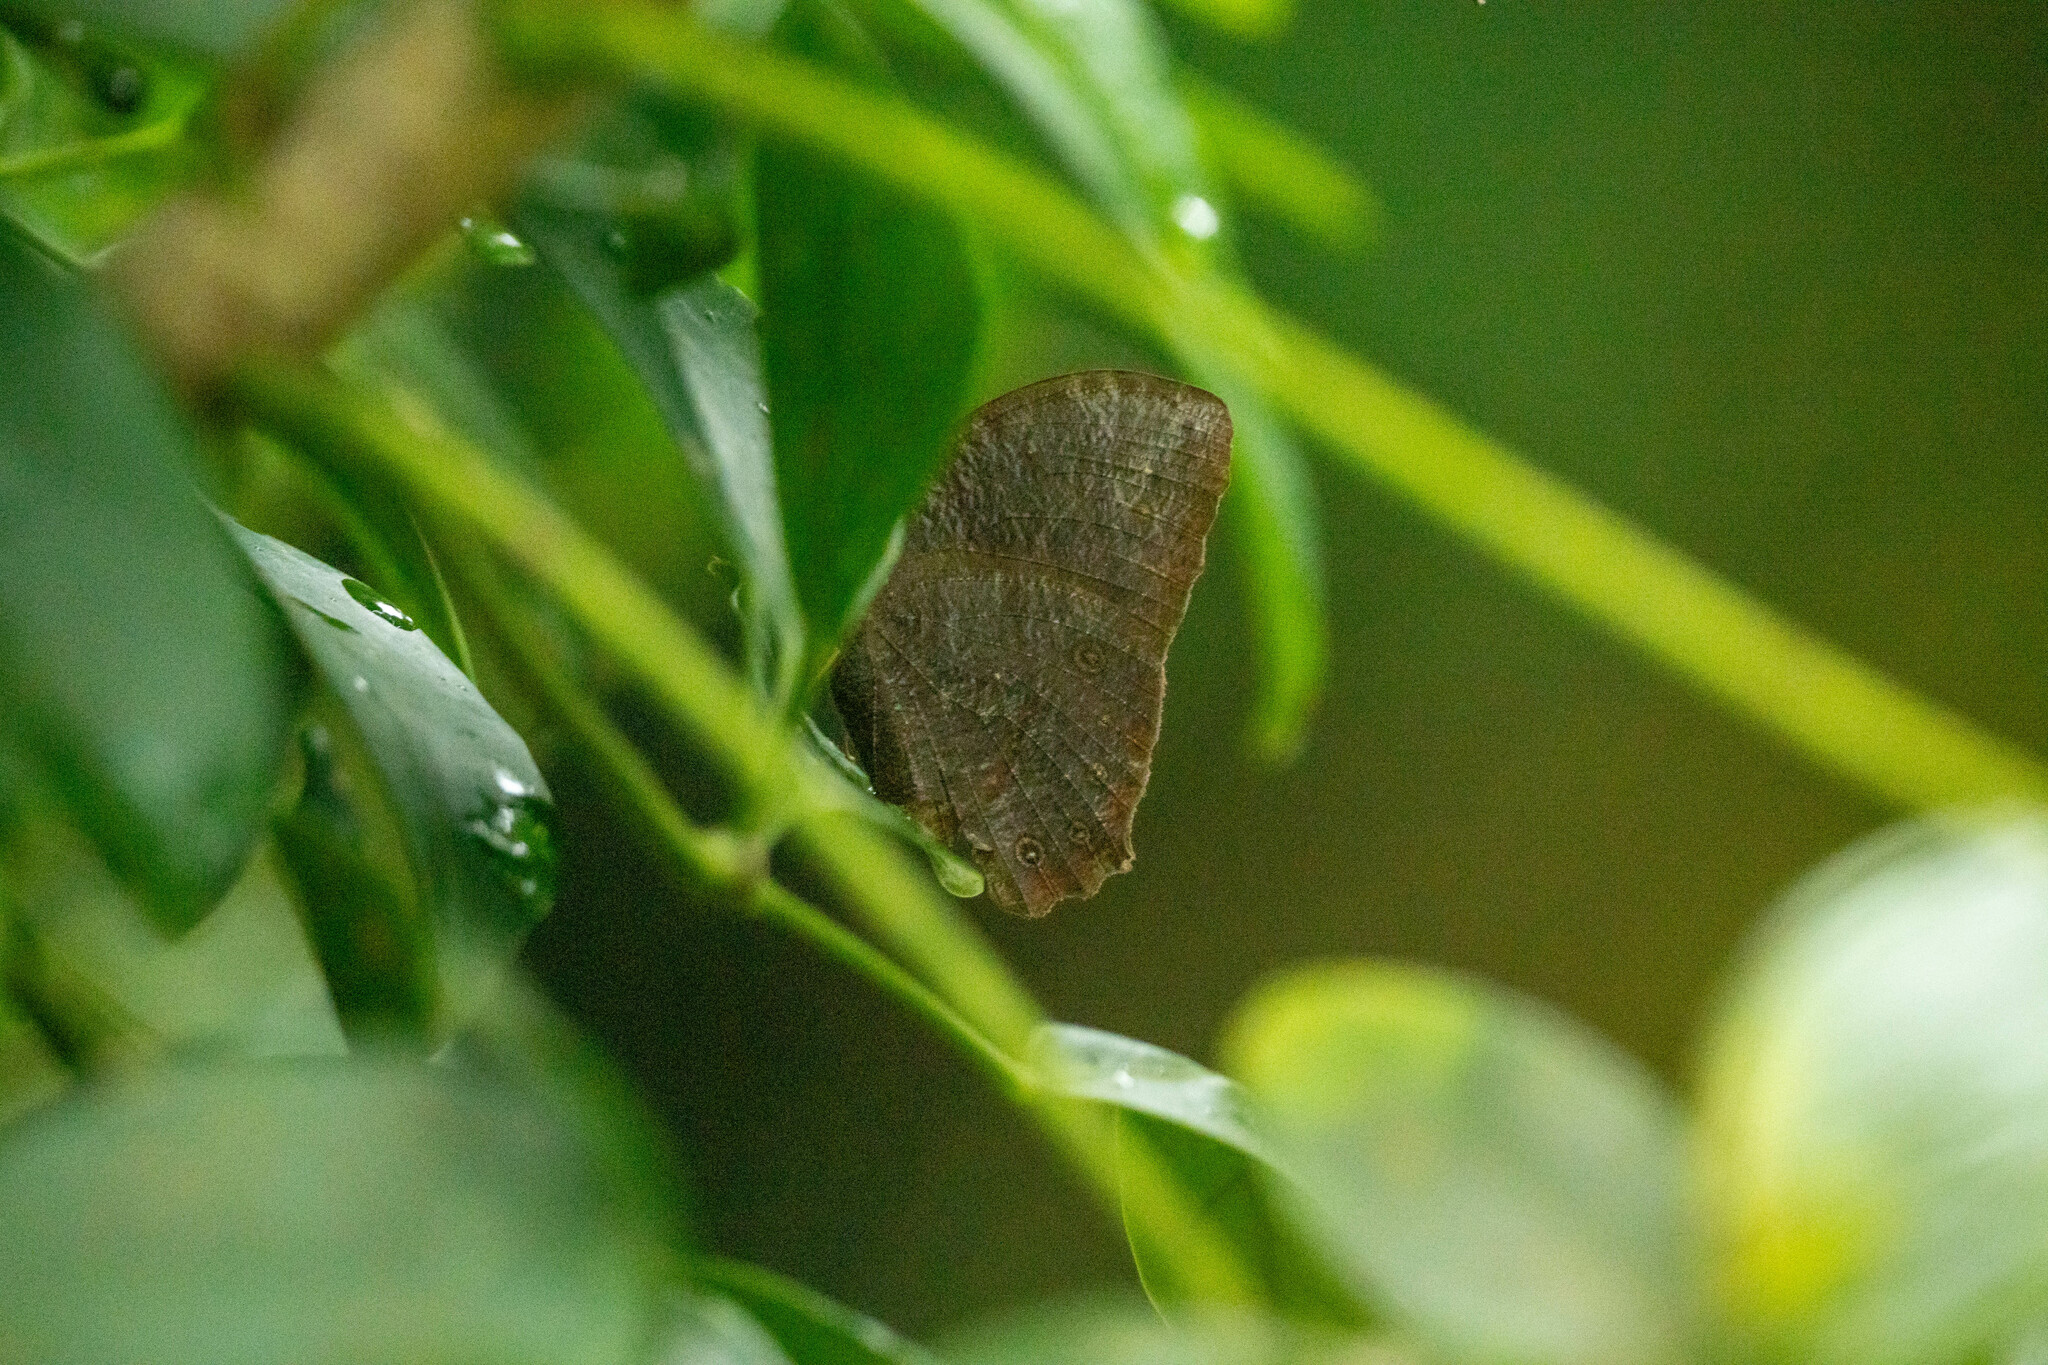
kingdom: Animalia
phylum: Arthropoda
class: Insecta
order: Lepidoptera
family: Nymphalidae
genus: Melanitis
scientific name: Melanitis phedima
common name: Dark evening brown
